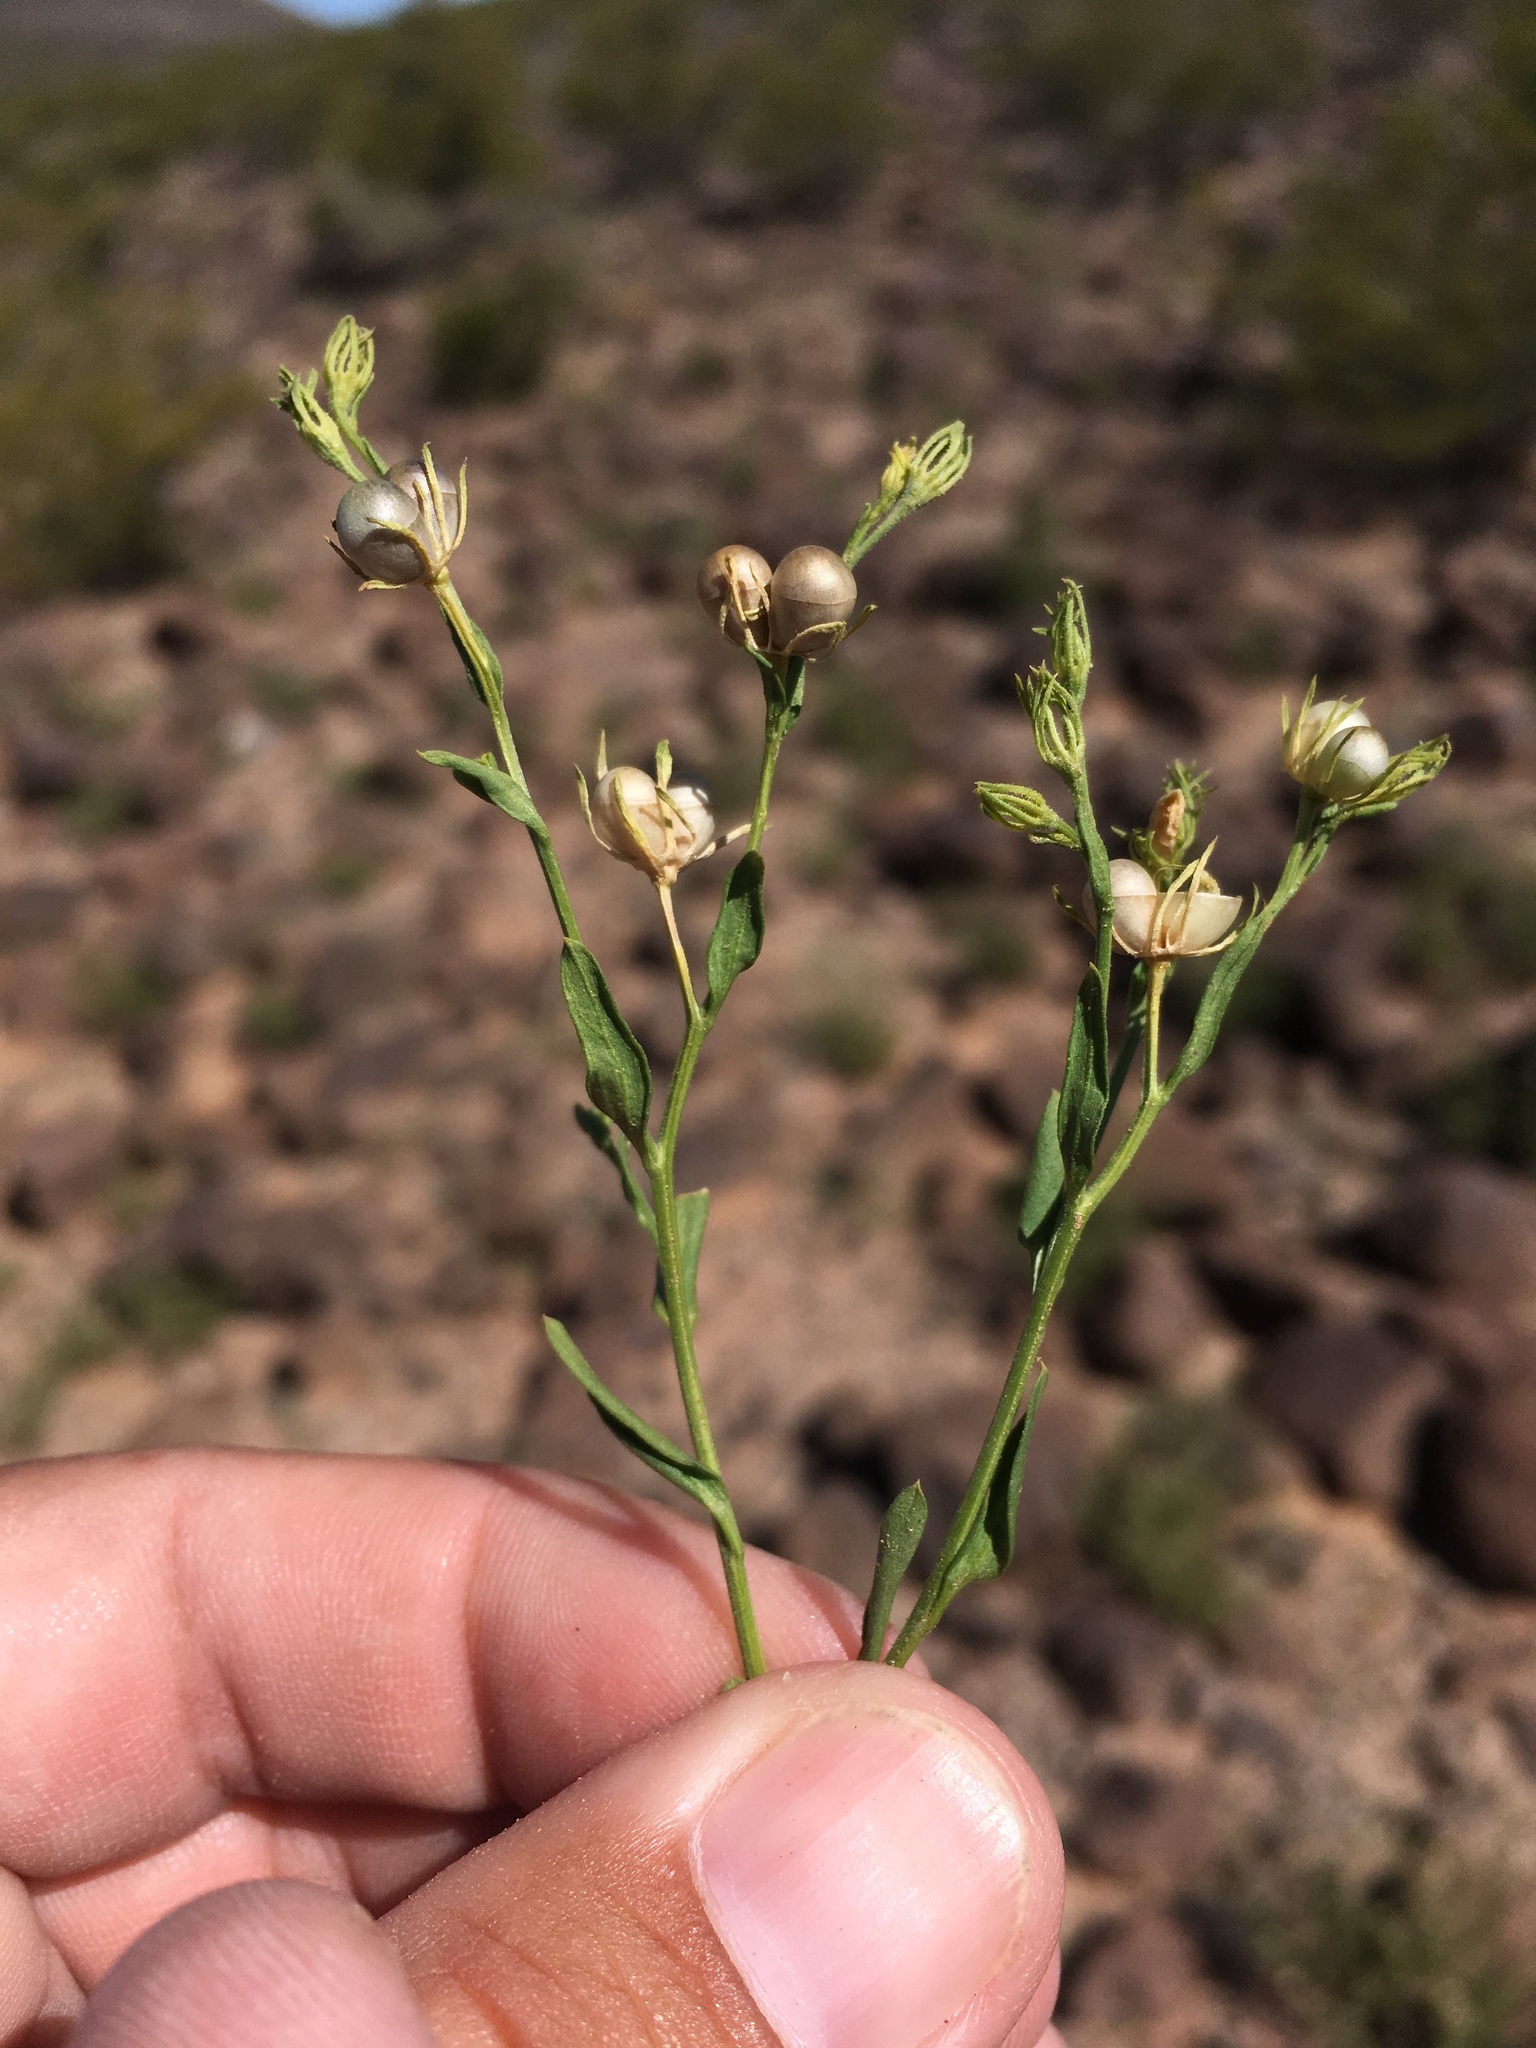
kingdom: Plantae
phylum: Tracheophyta
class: Magnoliopsida
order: Lamiales
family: Oleaceae
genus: Menodora
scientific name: Menodora scabra
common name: Rough menodora
